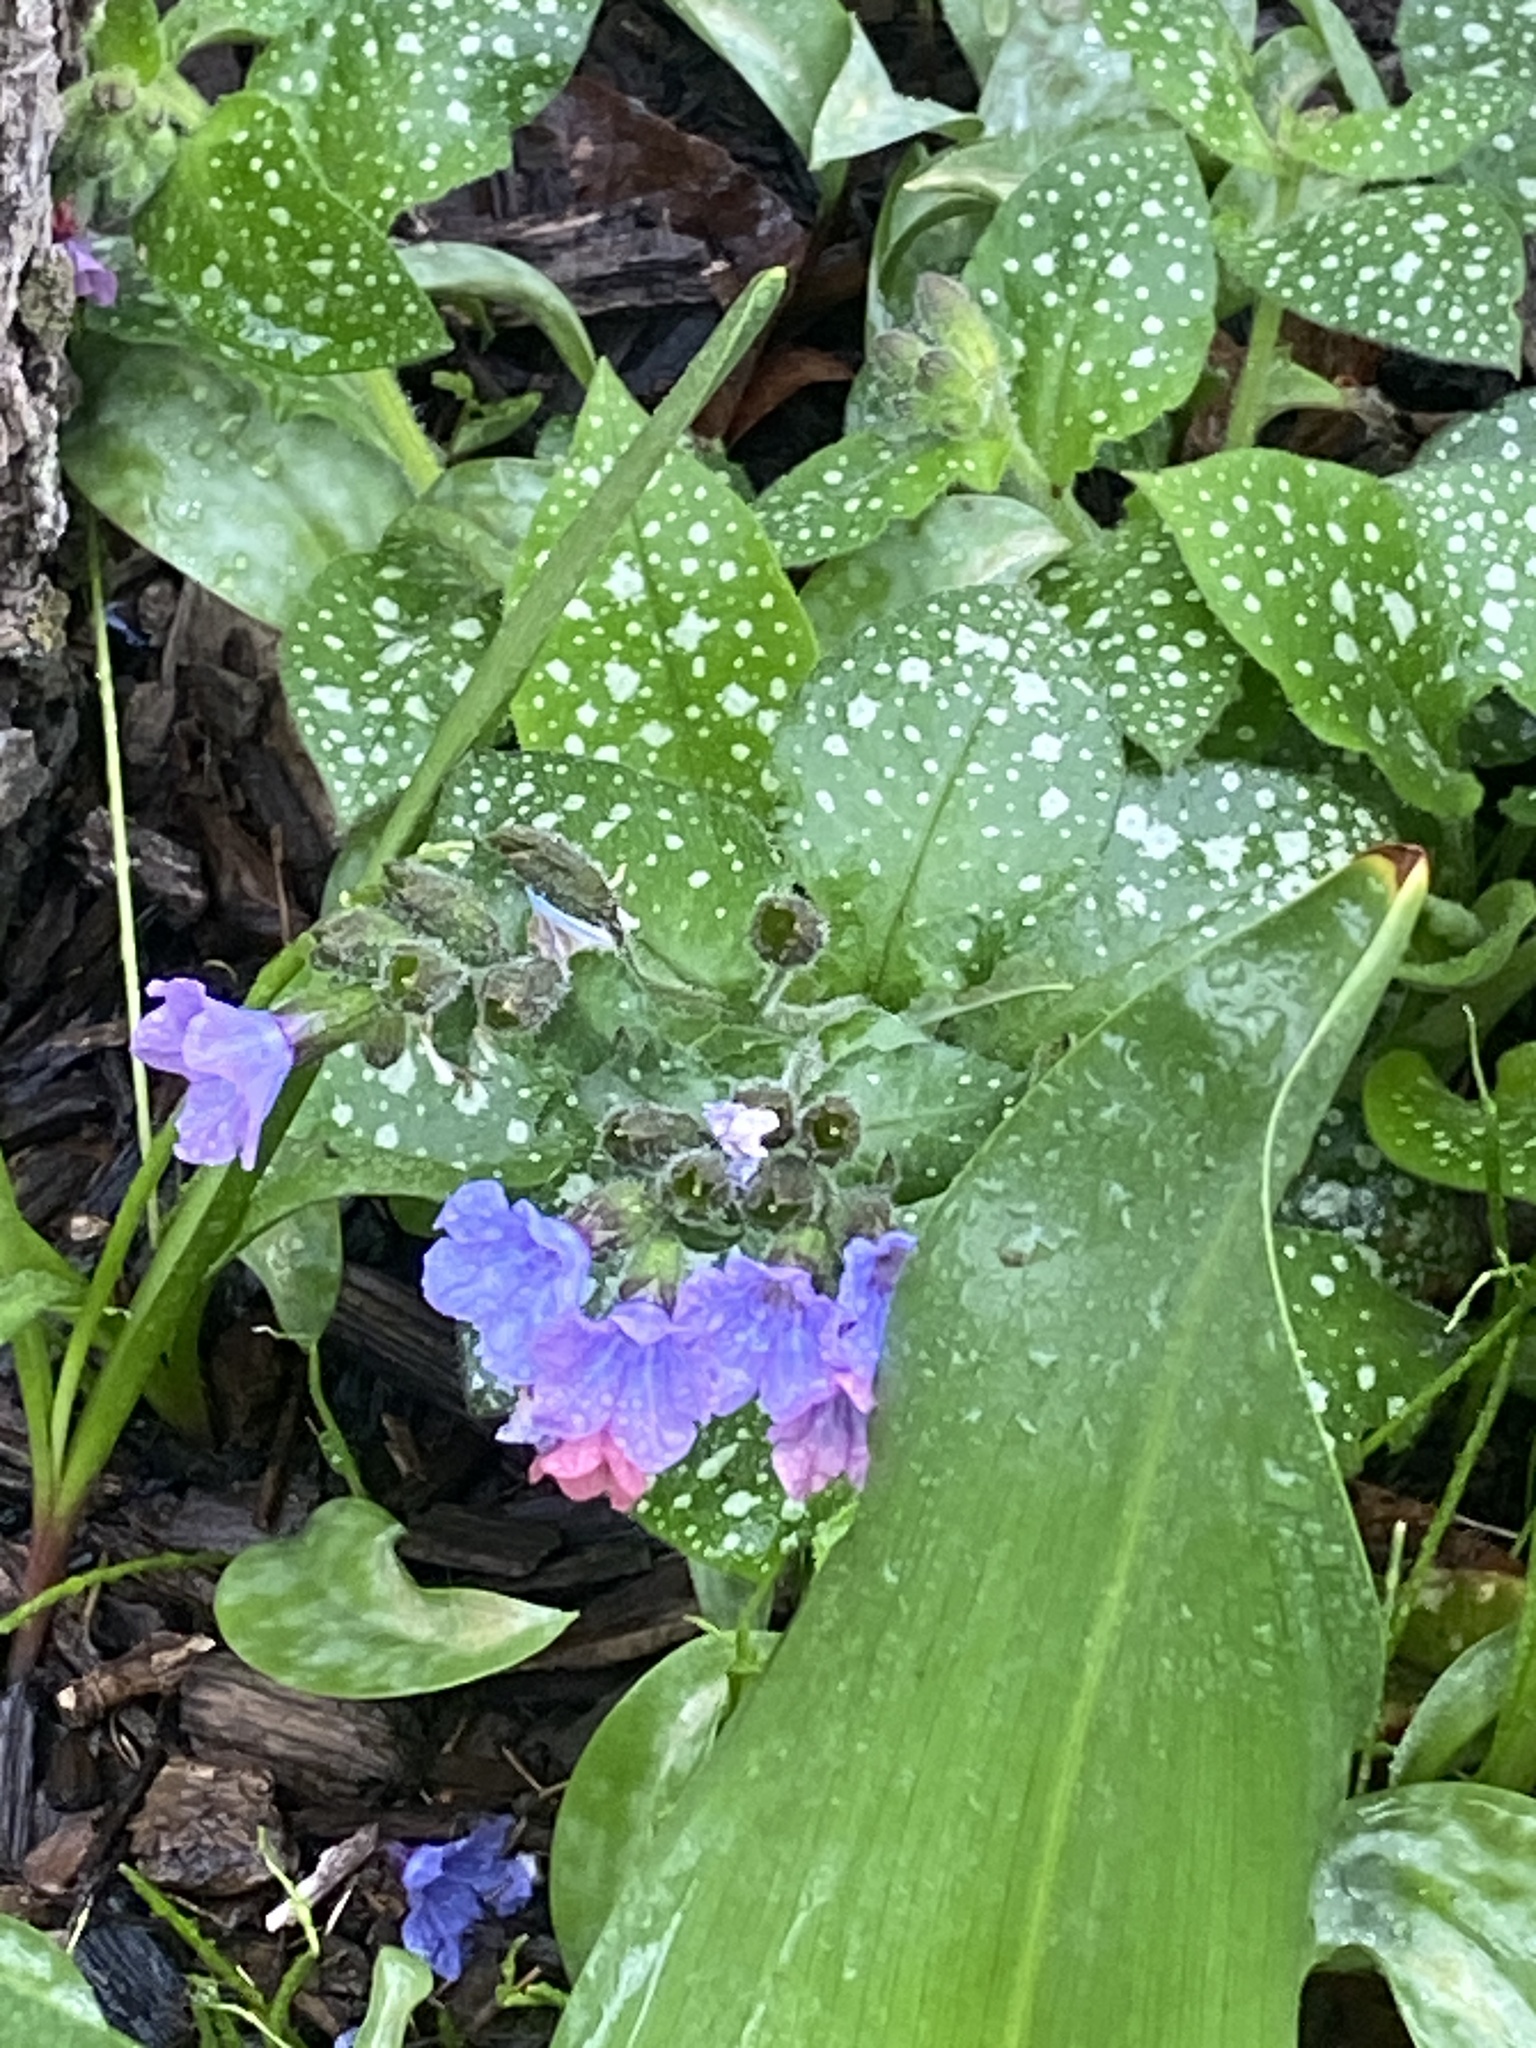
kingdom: Plantae
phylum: Tracheophyta
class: Magnoliopsida
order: Boraginales
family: Boraginaceae
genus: Pulmonaria
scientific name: Pulmonaria officinalis
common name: Lungwort
